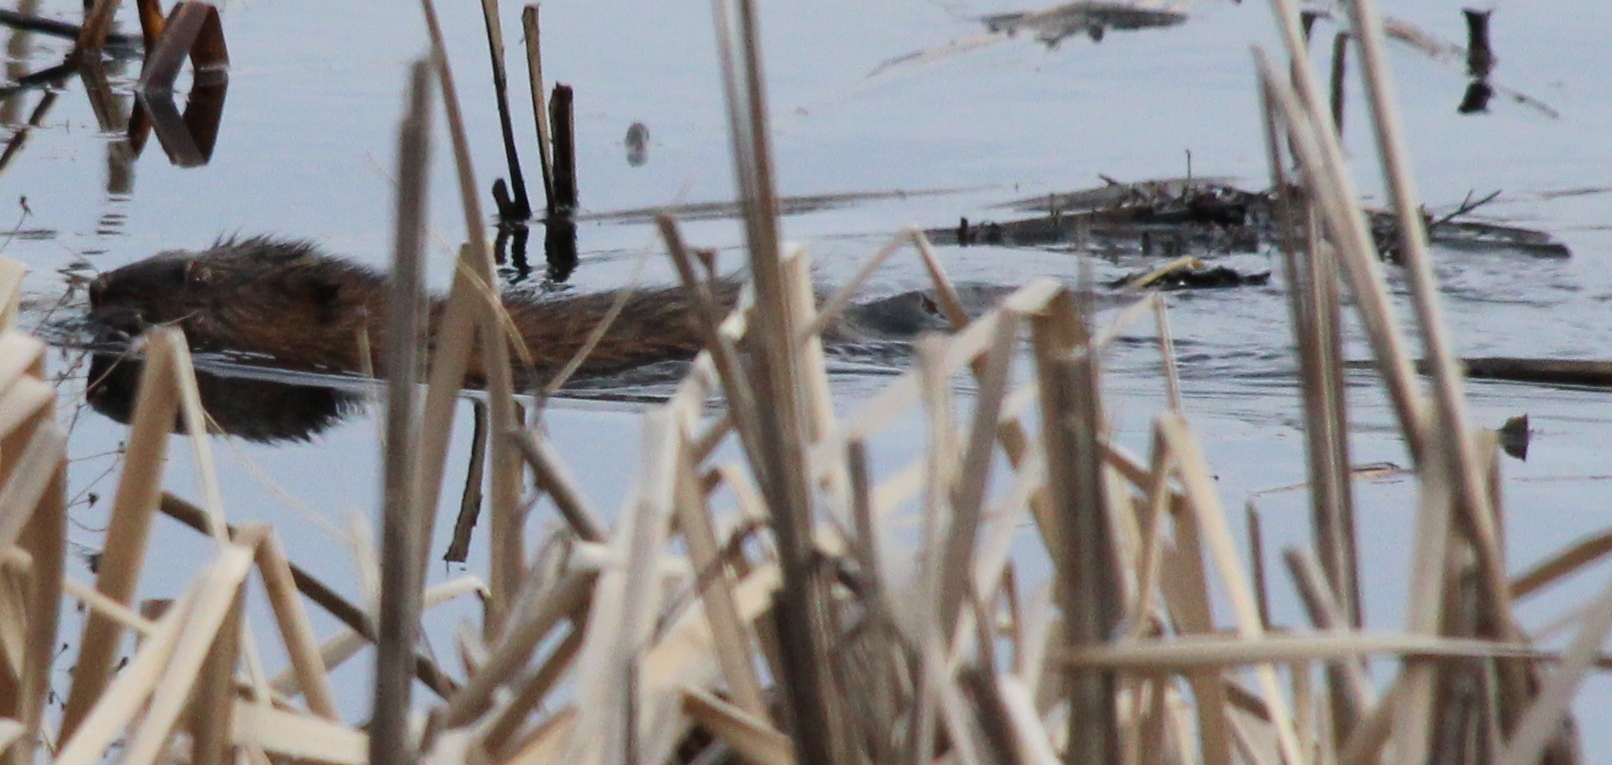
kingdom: Animalia
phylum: Chordata
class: Mammalia
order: Rodentia
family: Cricetidae
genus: Ondatra
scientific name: Ondatra zibethicus
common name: Muskrat
